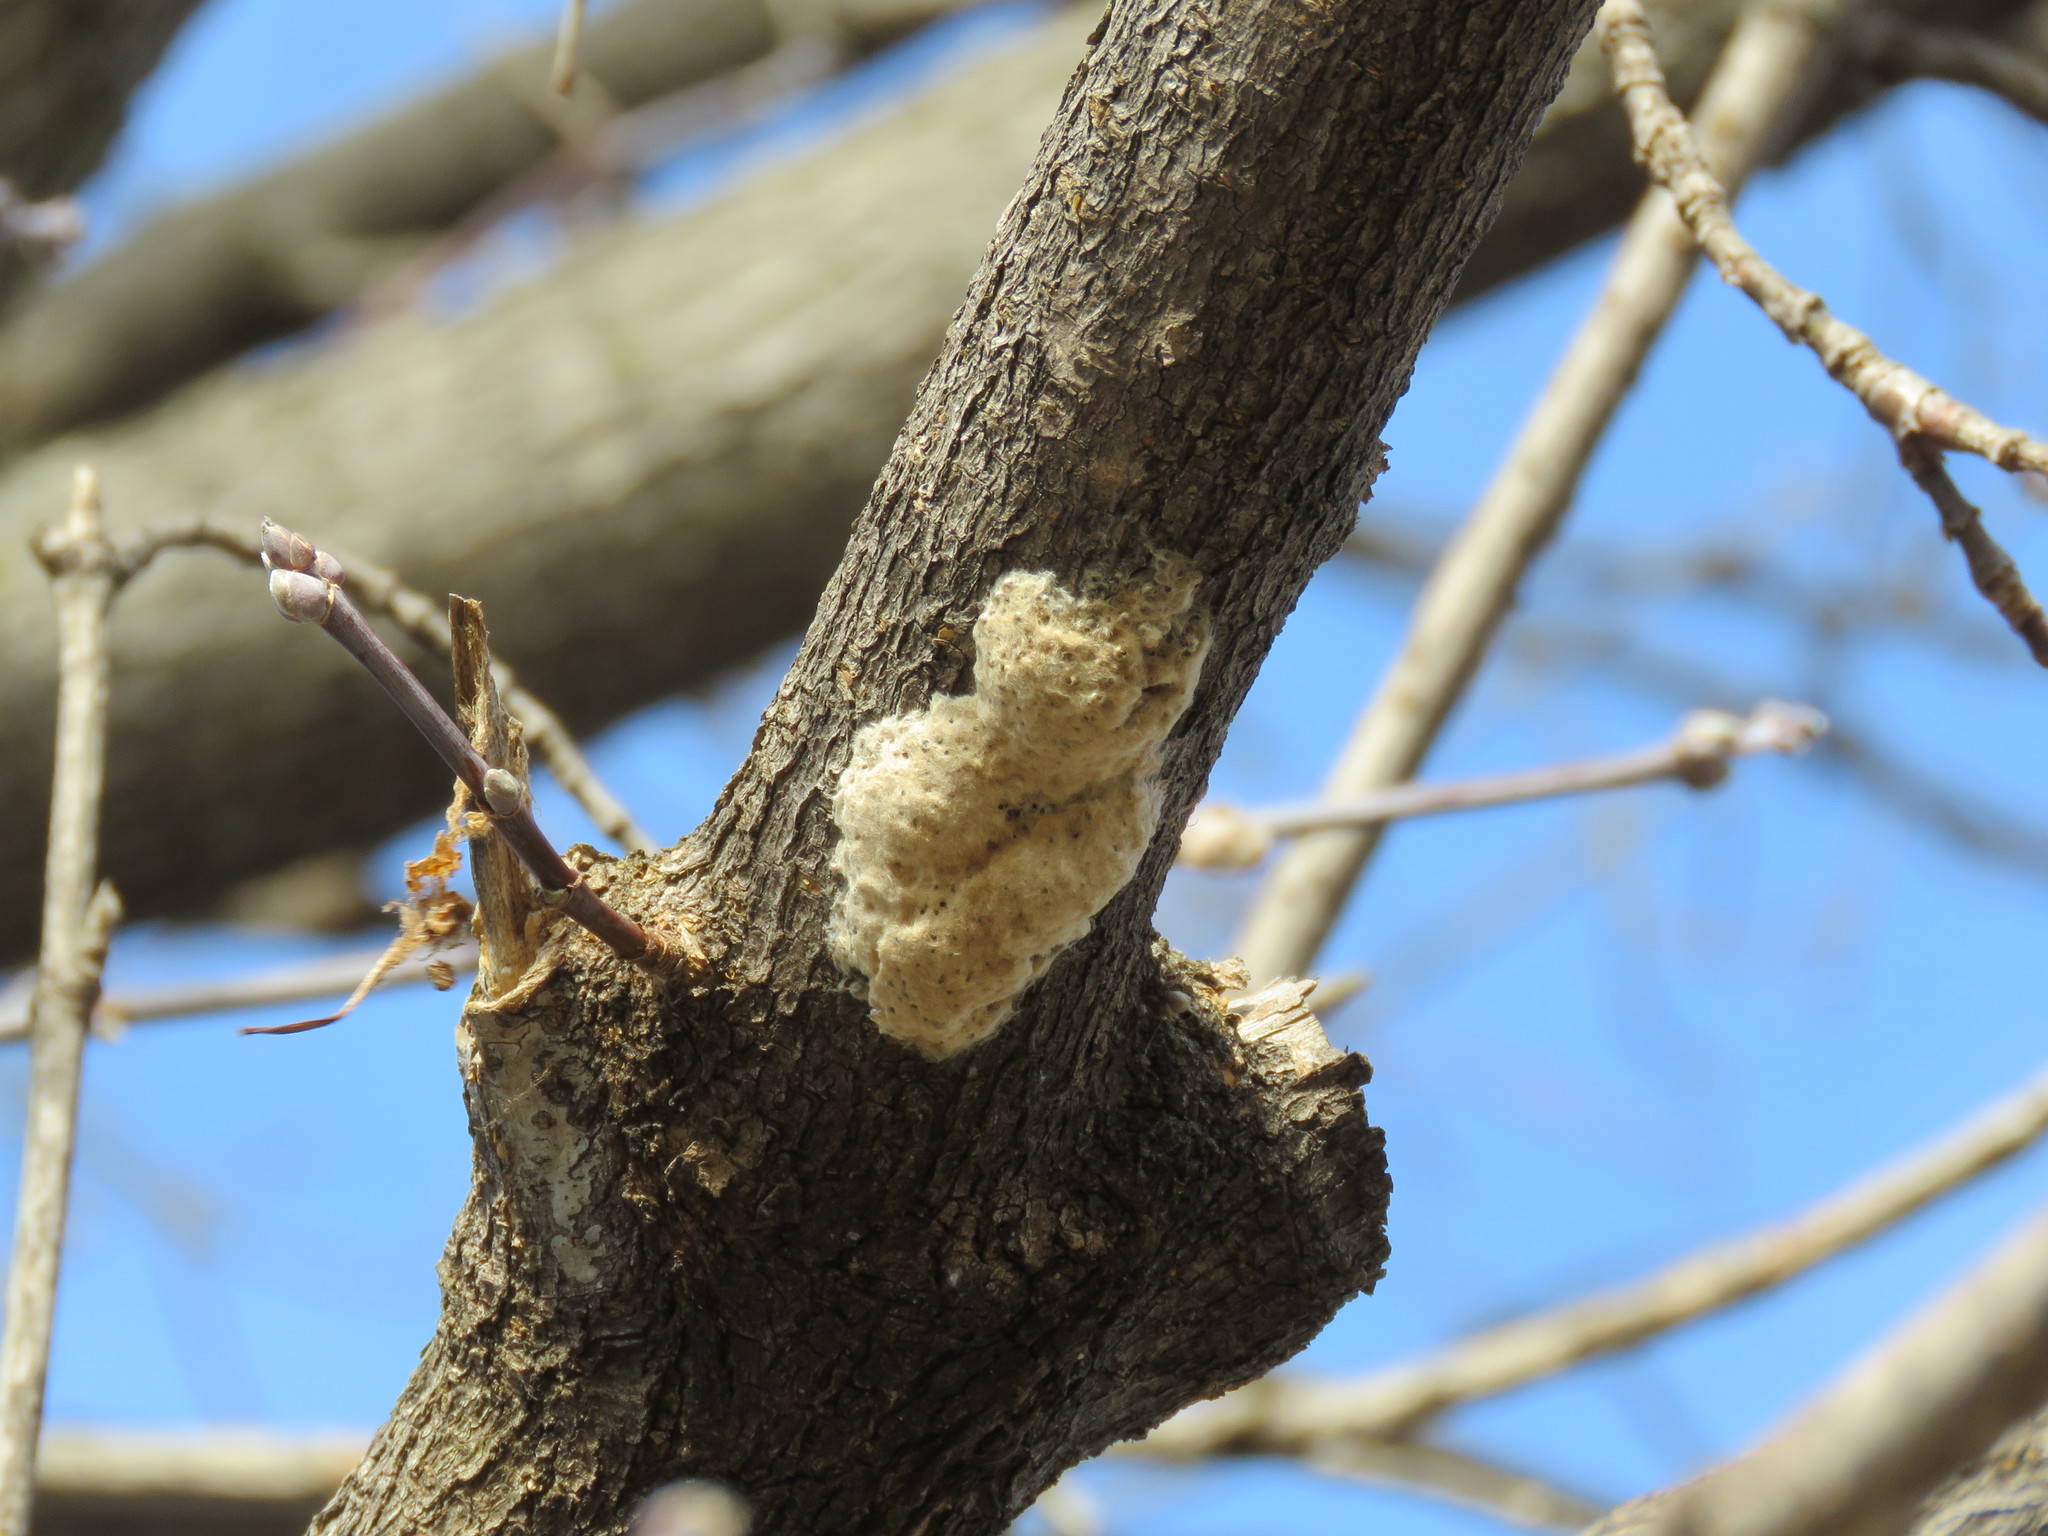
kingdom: Animalia
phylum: Arthropoda
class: Insecta
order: Lepidoptera
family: Erebidae
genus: Lymantria
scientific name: Lymantria dispar
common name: Gypsy moth
